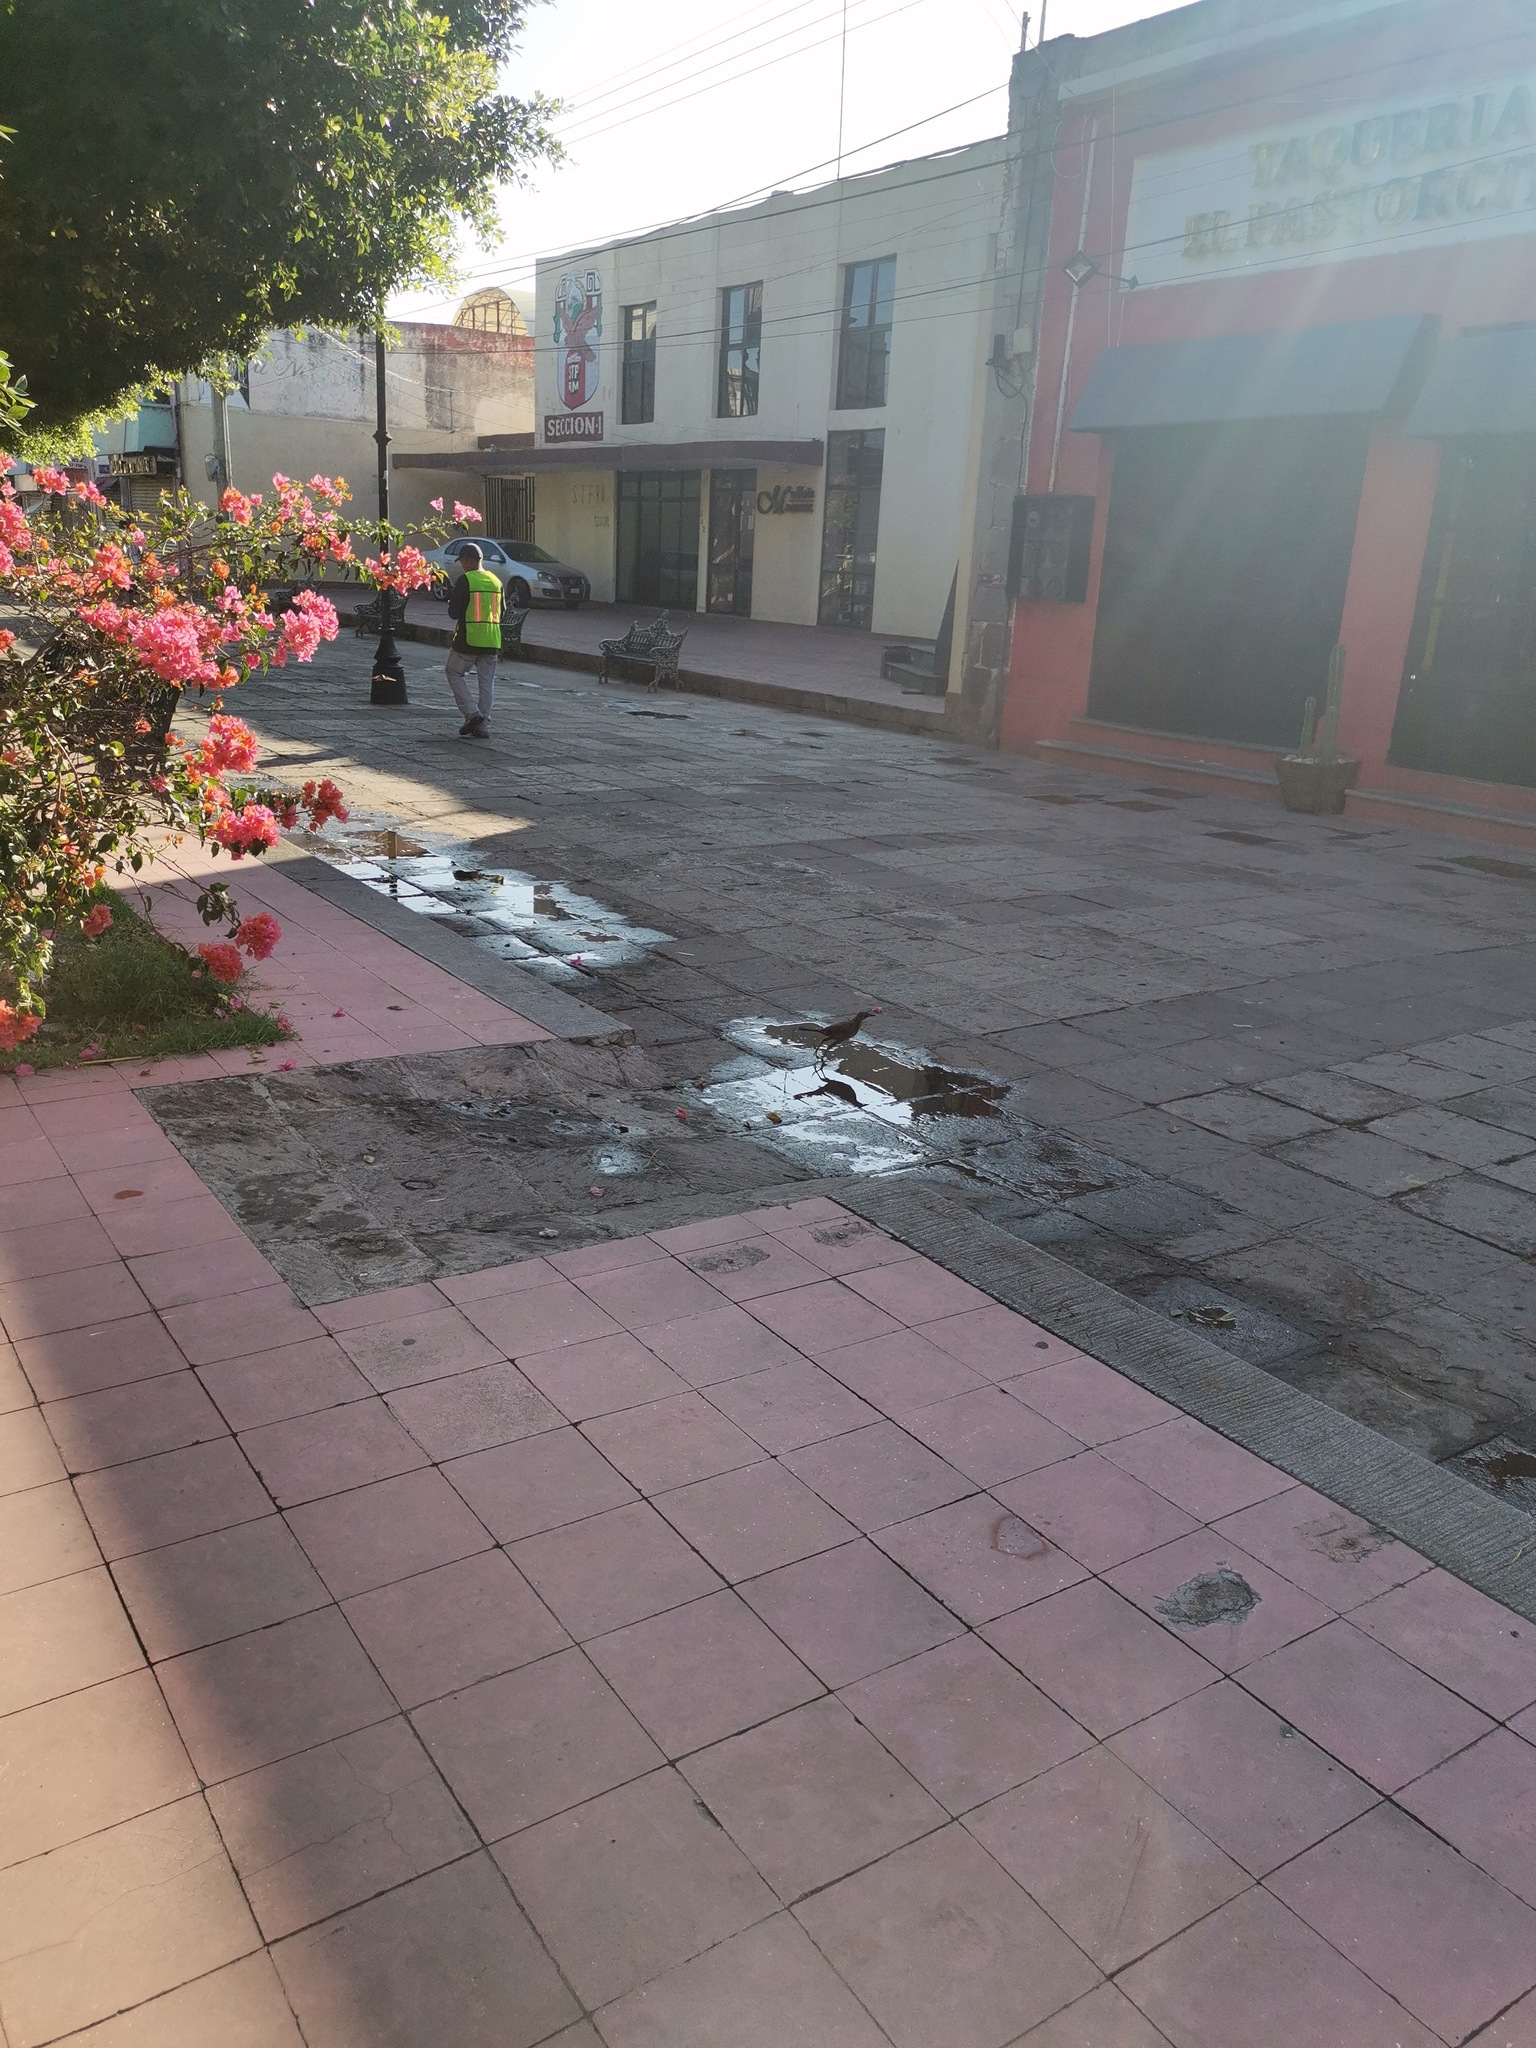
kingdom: Animalia
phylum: Chordata
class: Aves
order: Passeriformes
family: Icteridae
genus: Quiscalus
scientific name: Quiscalus mexicanus
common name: Great-tailed grackle
